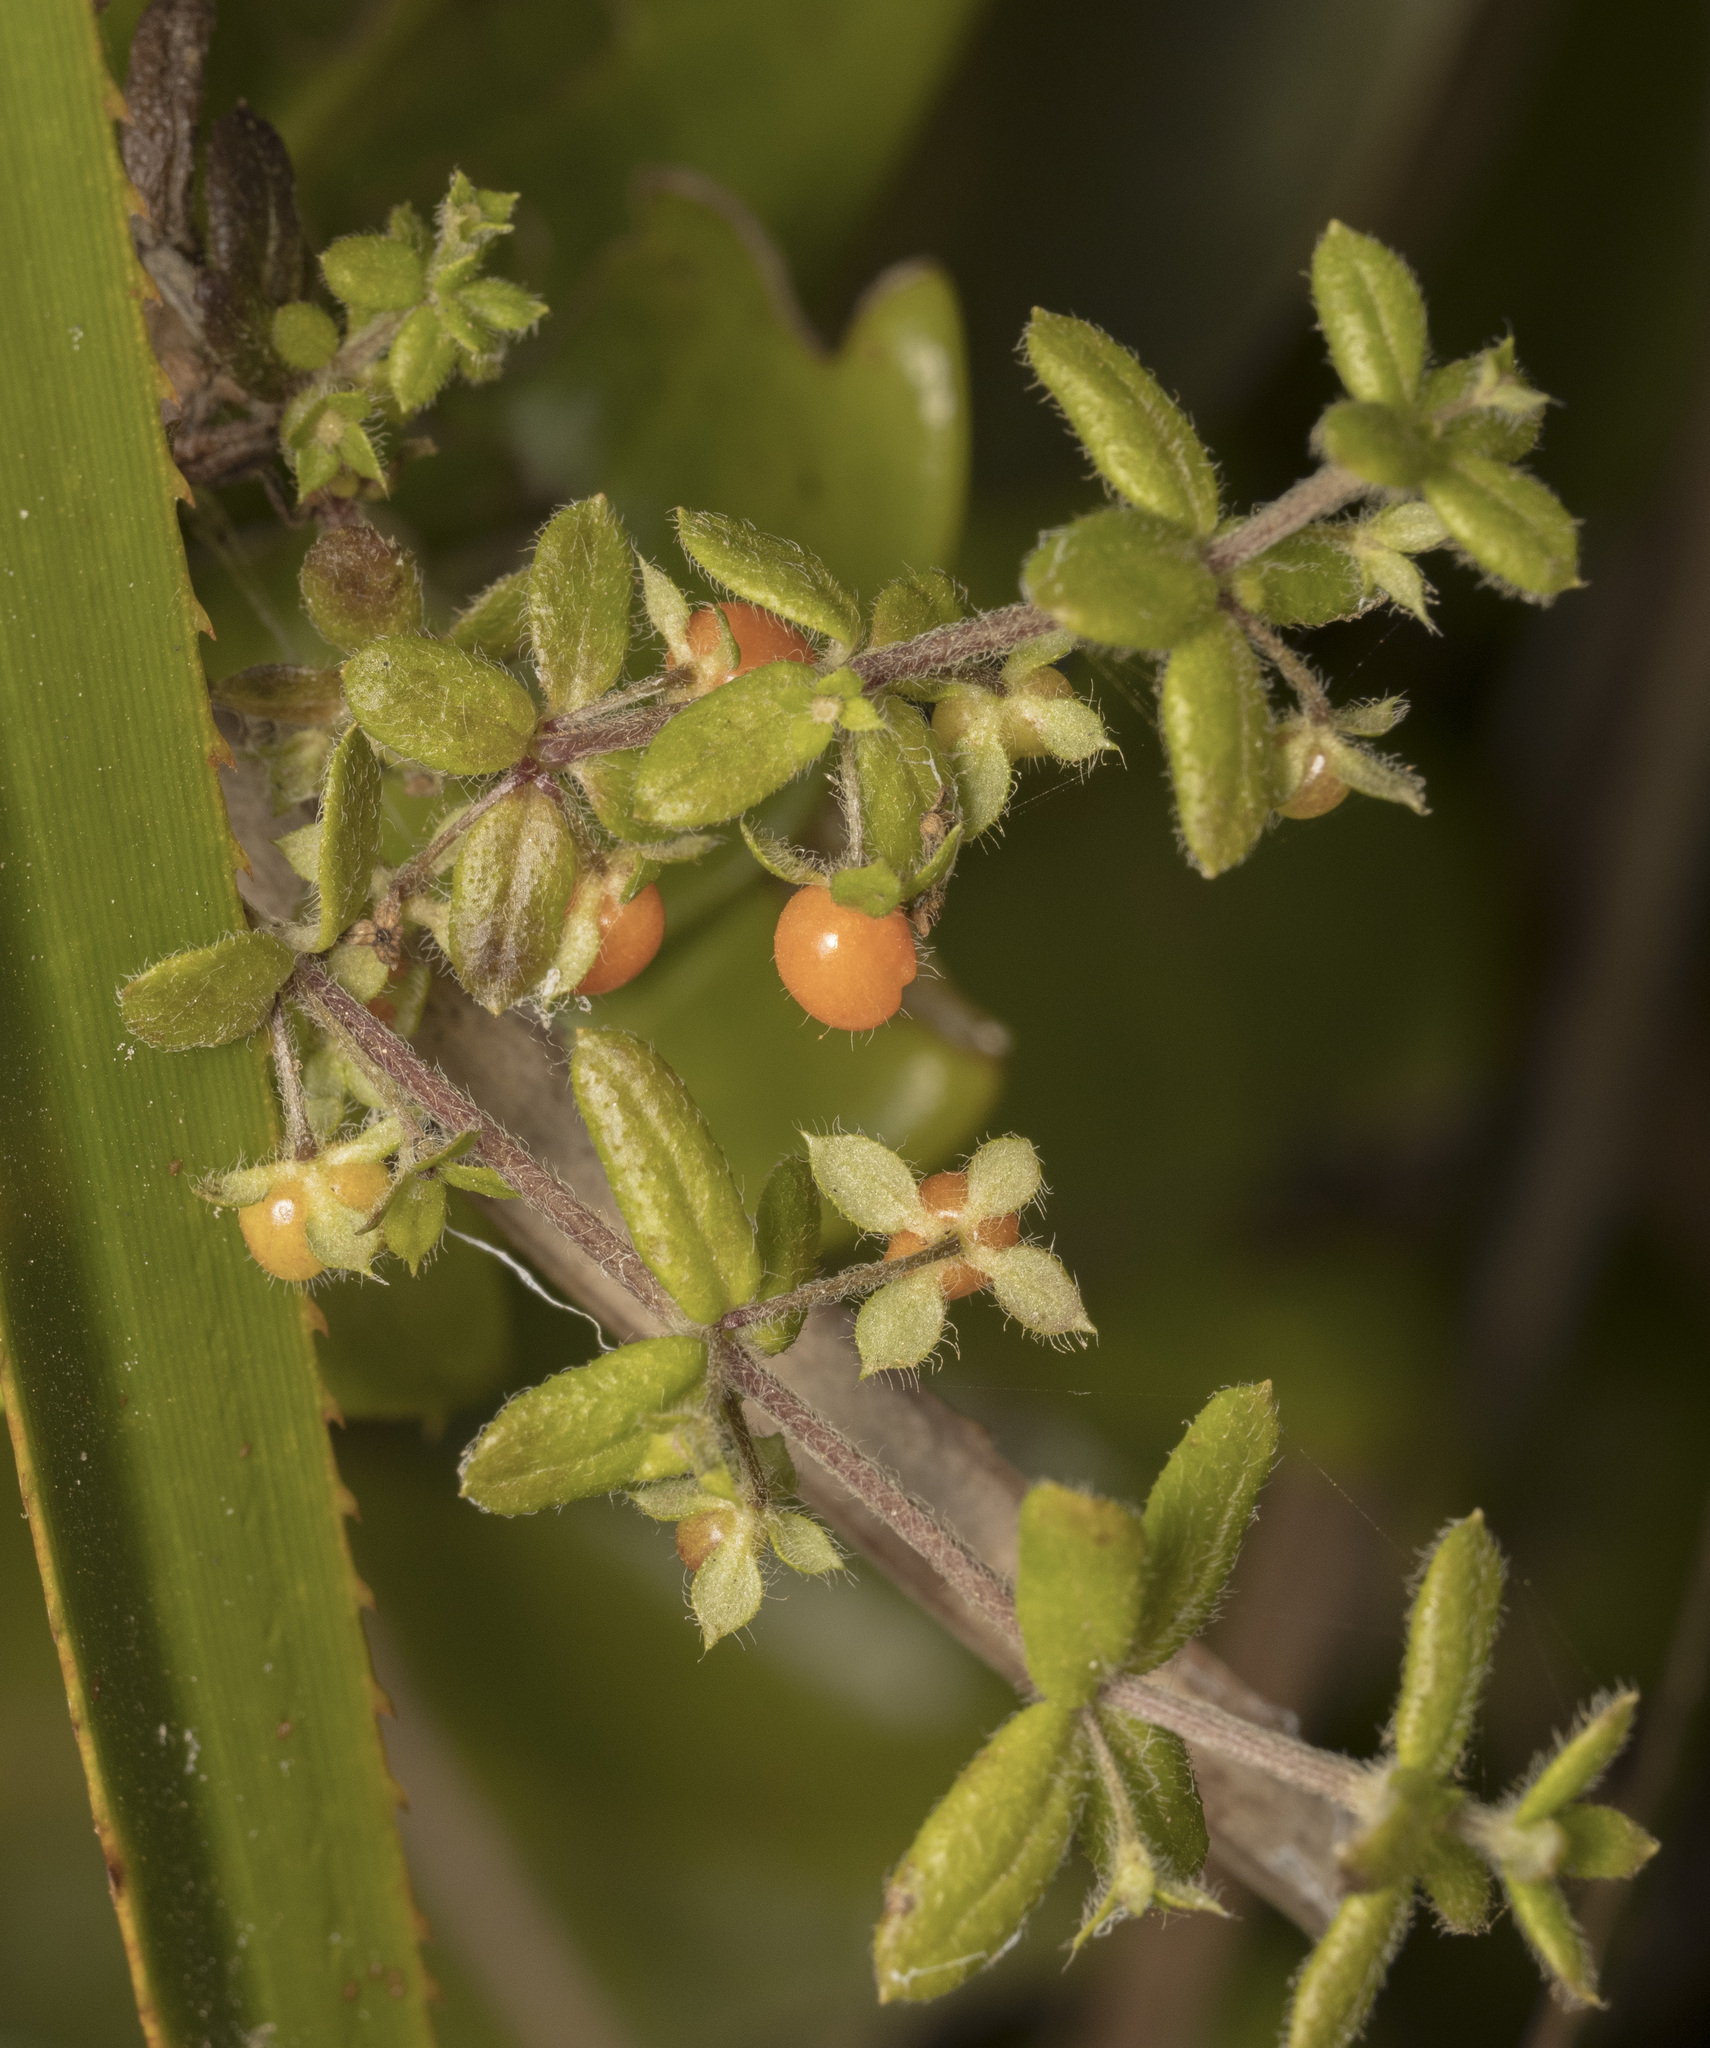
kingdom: Plantae
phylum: Tracheophyta
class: Magnoliopsida
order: Gentianales
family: Rubiaceae
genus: Galium
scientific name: Galium hypocarpium
